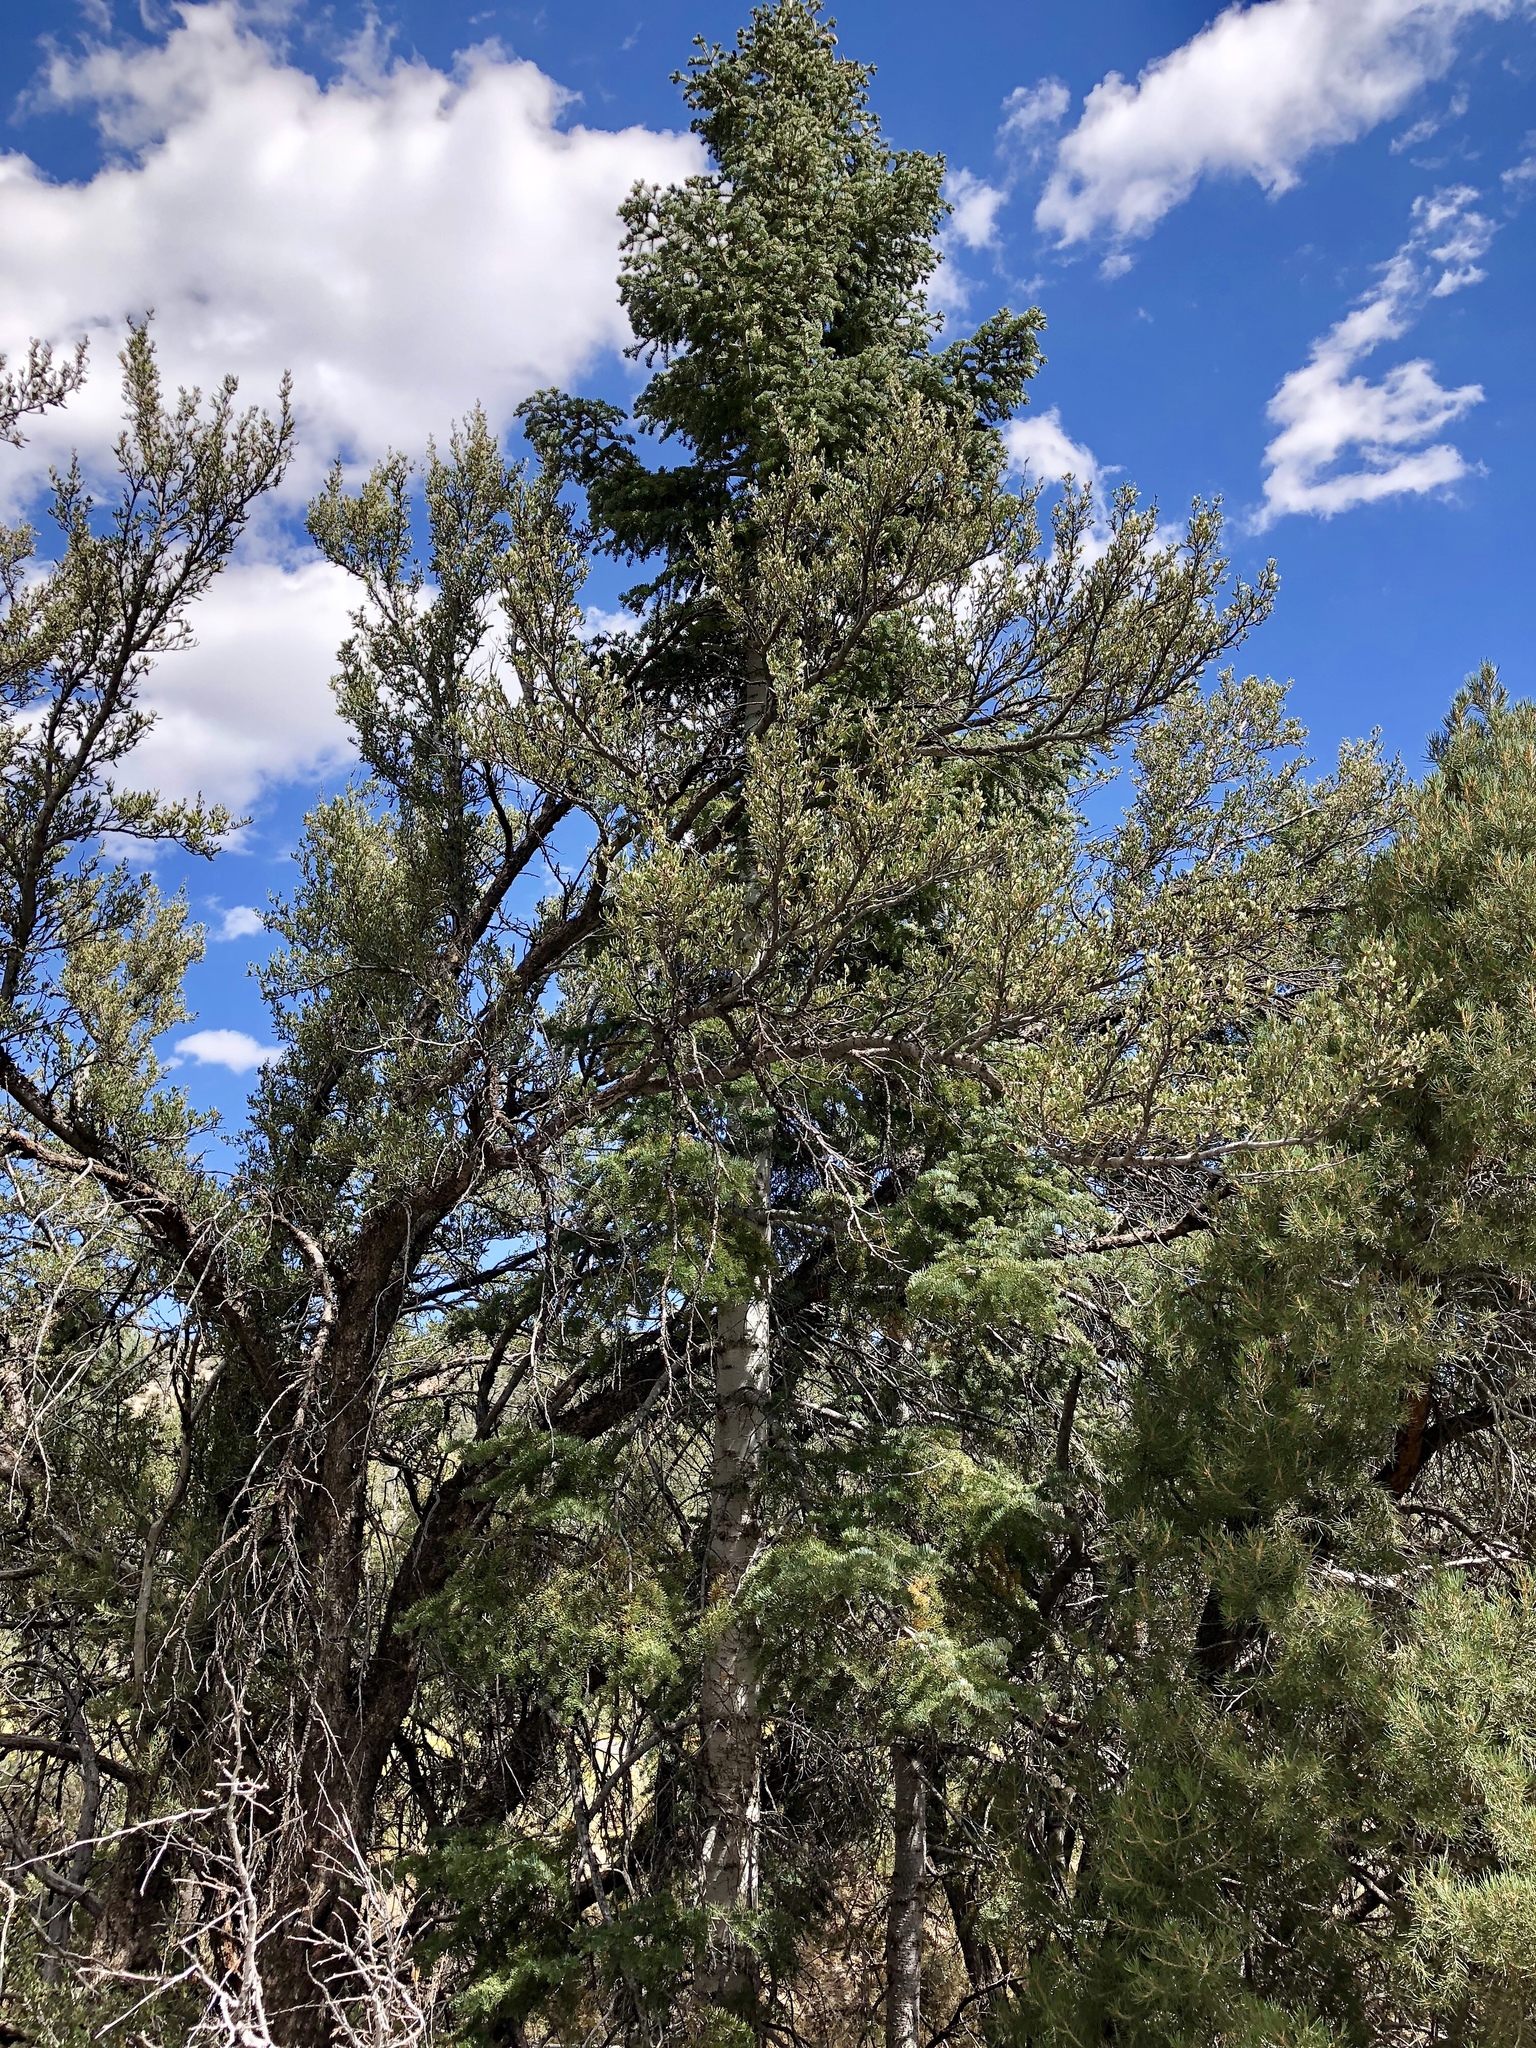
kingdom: Plantae
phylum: Tracheophyta
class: Pinopsida
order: Pinales
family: Pinaceae
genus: Abies
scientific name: Abies concolor
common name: Colorado fir
